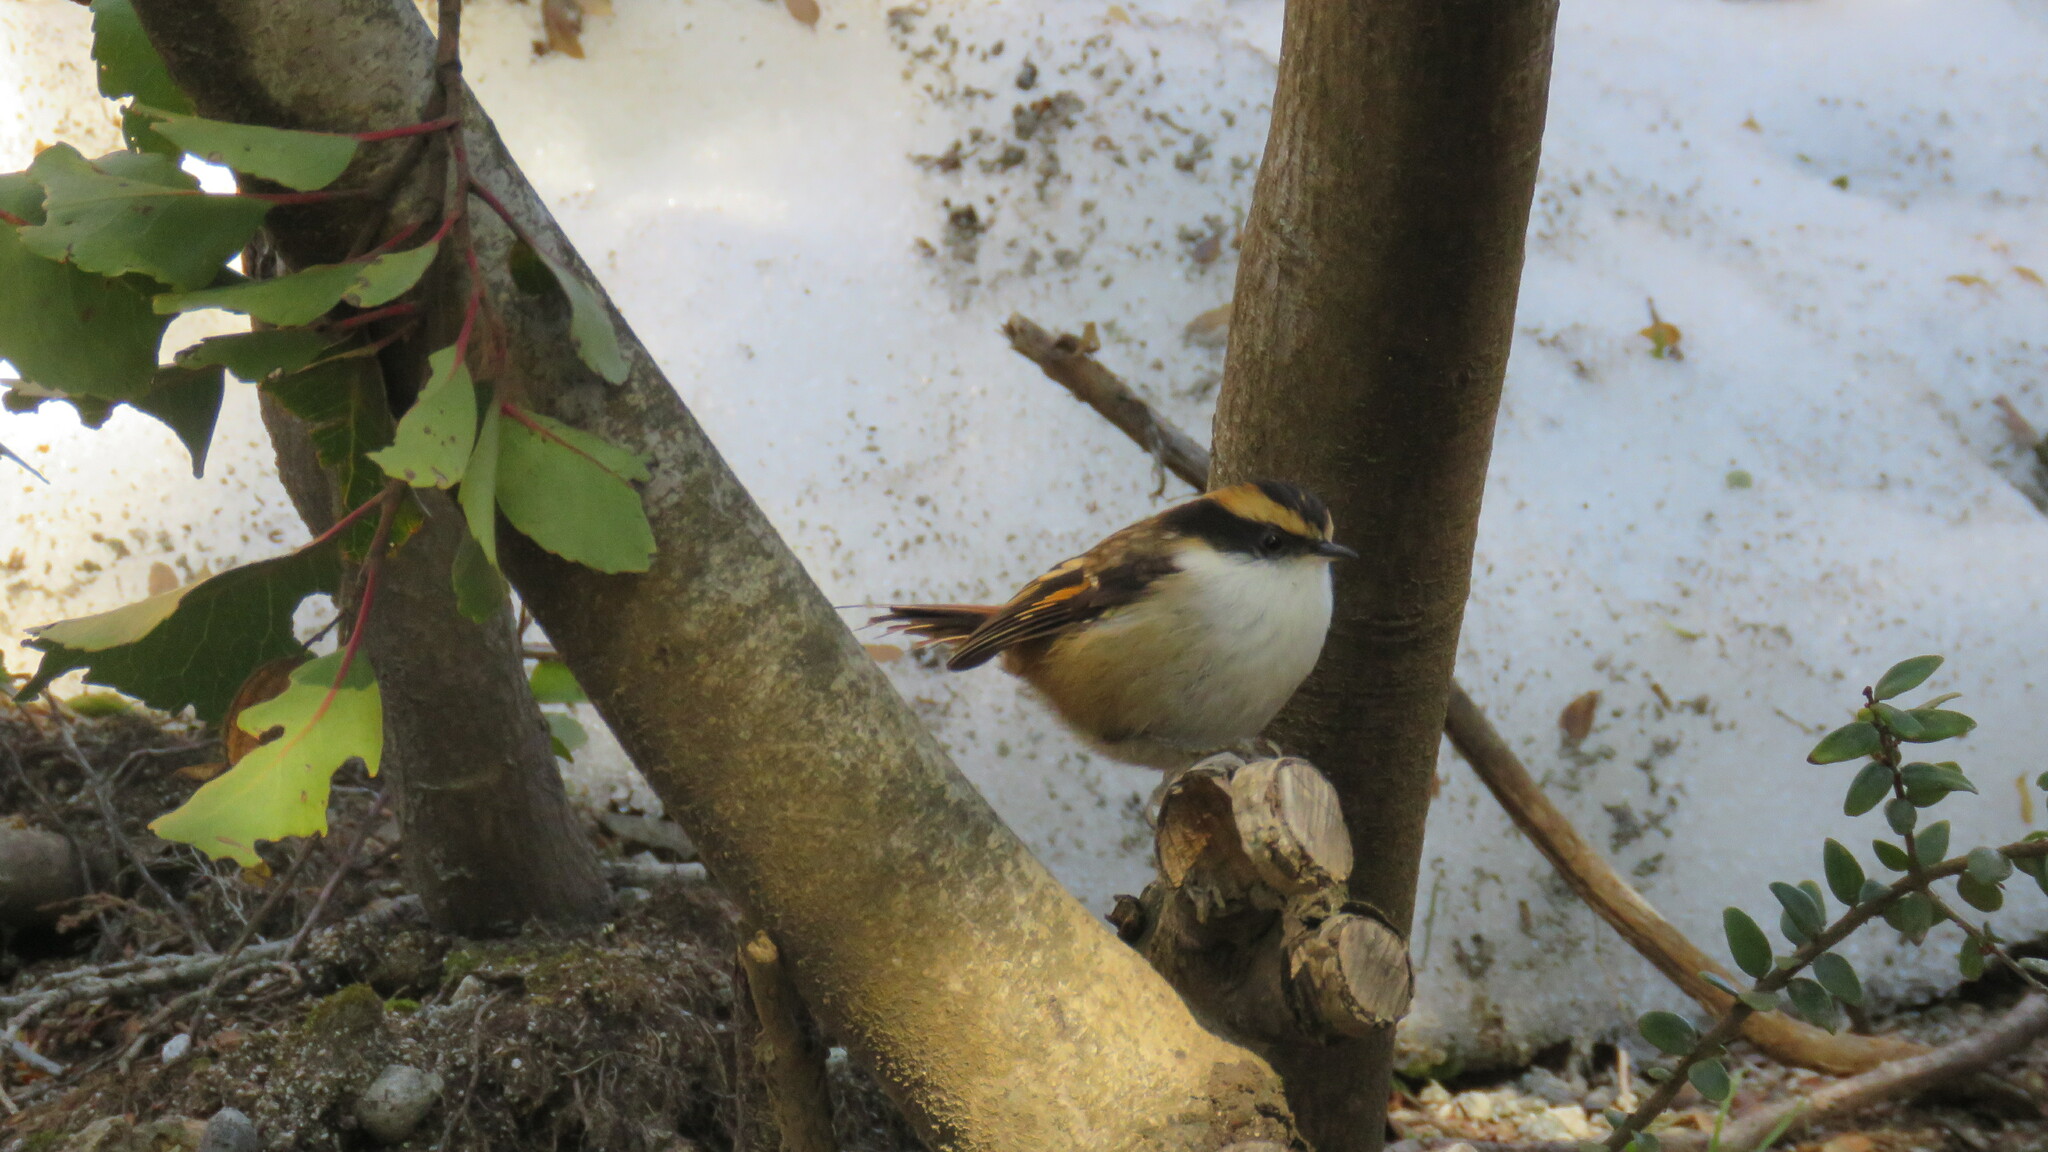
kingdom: Animalia
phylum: Chordata
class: Aves
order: Passeriformes
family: Furnariidae
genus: Aphrastura
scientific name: Aphrastura spinicauda
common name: Thorn-tailed rayadito
